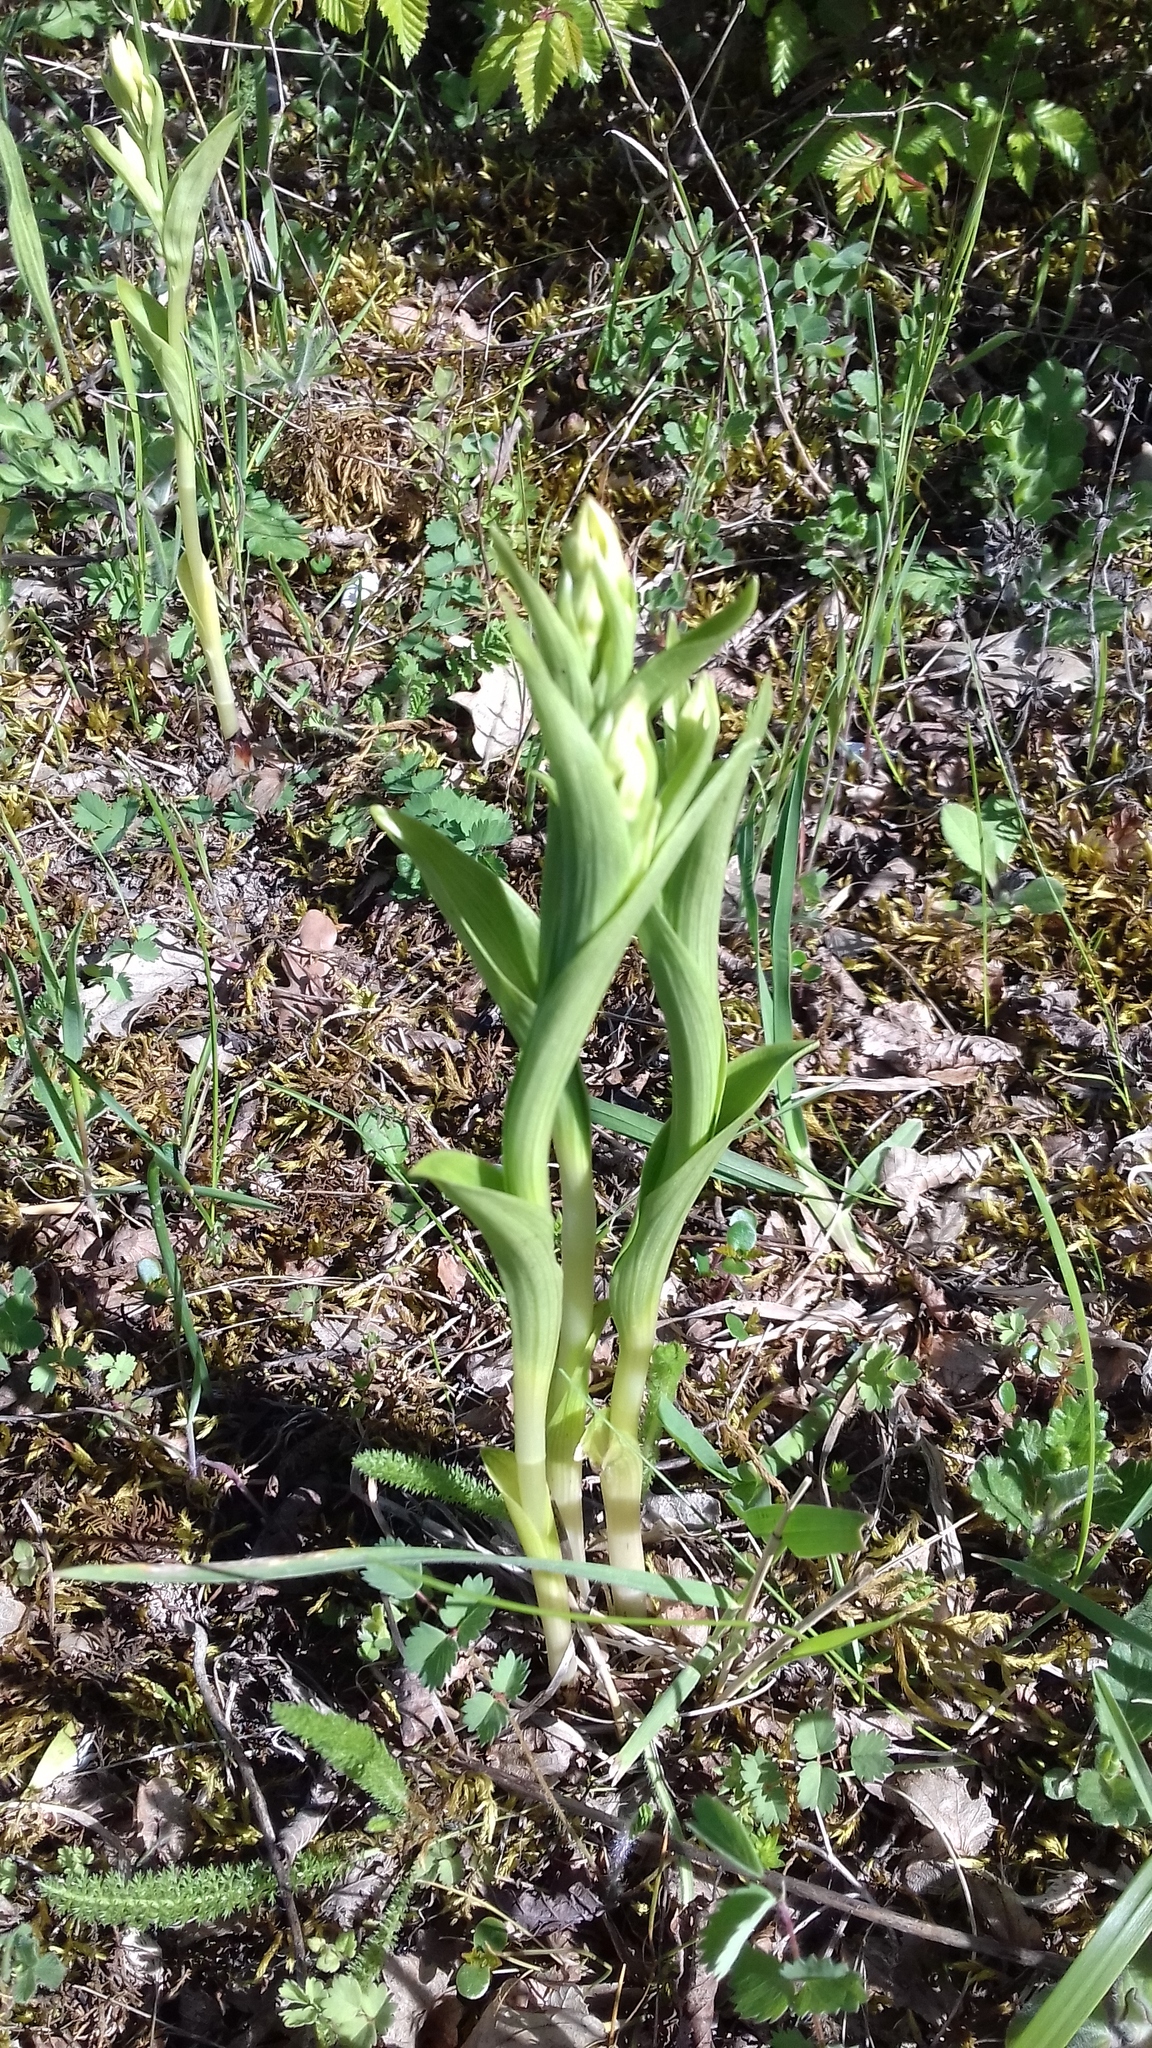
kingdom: Plantae
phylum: Tracheophyta
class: Liliopsida
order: Asparagales
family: Orchidaceae
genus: Cephalanthera
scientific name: Cephalanthera damasonium
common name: White helleborine
